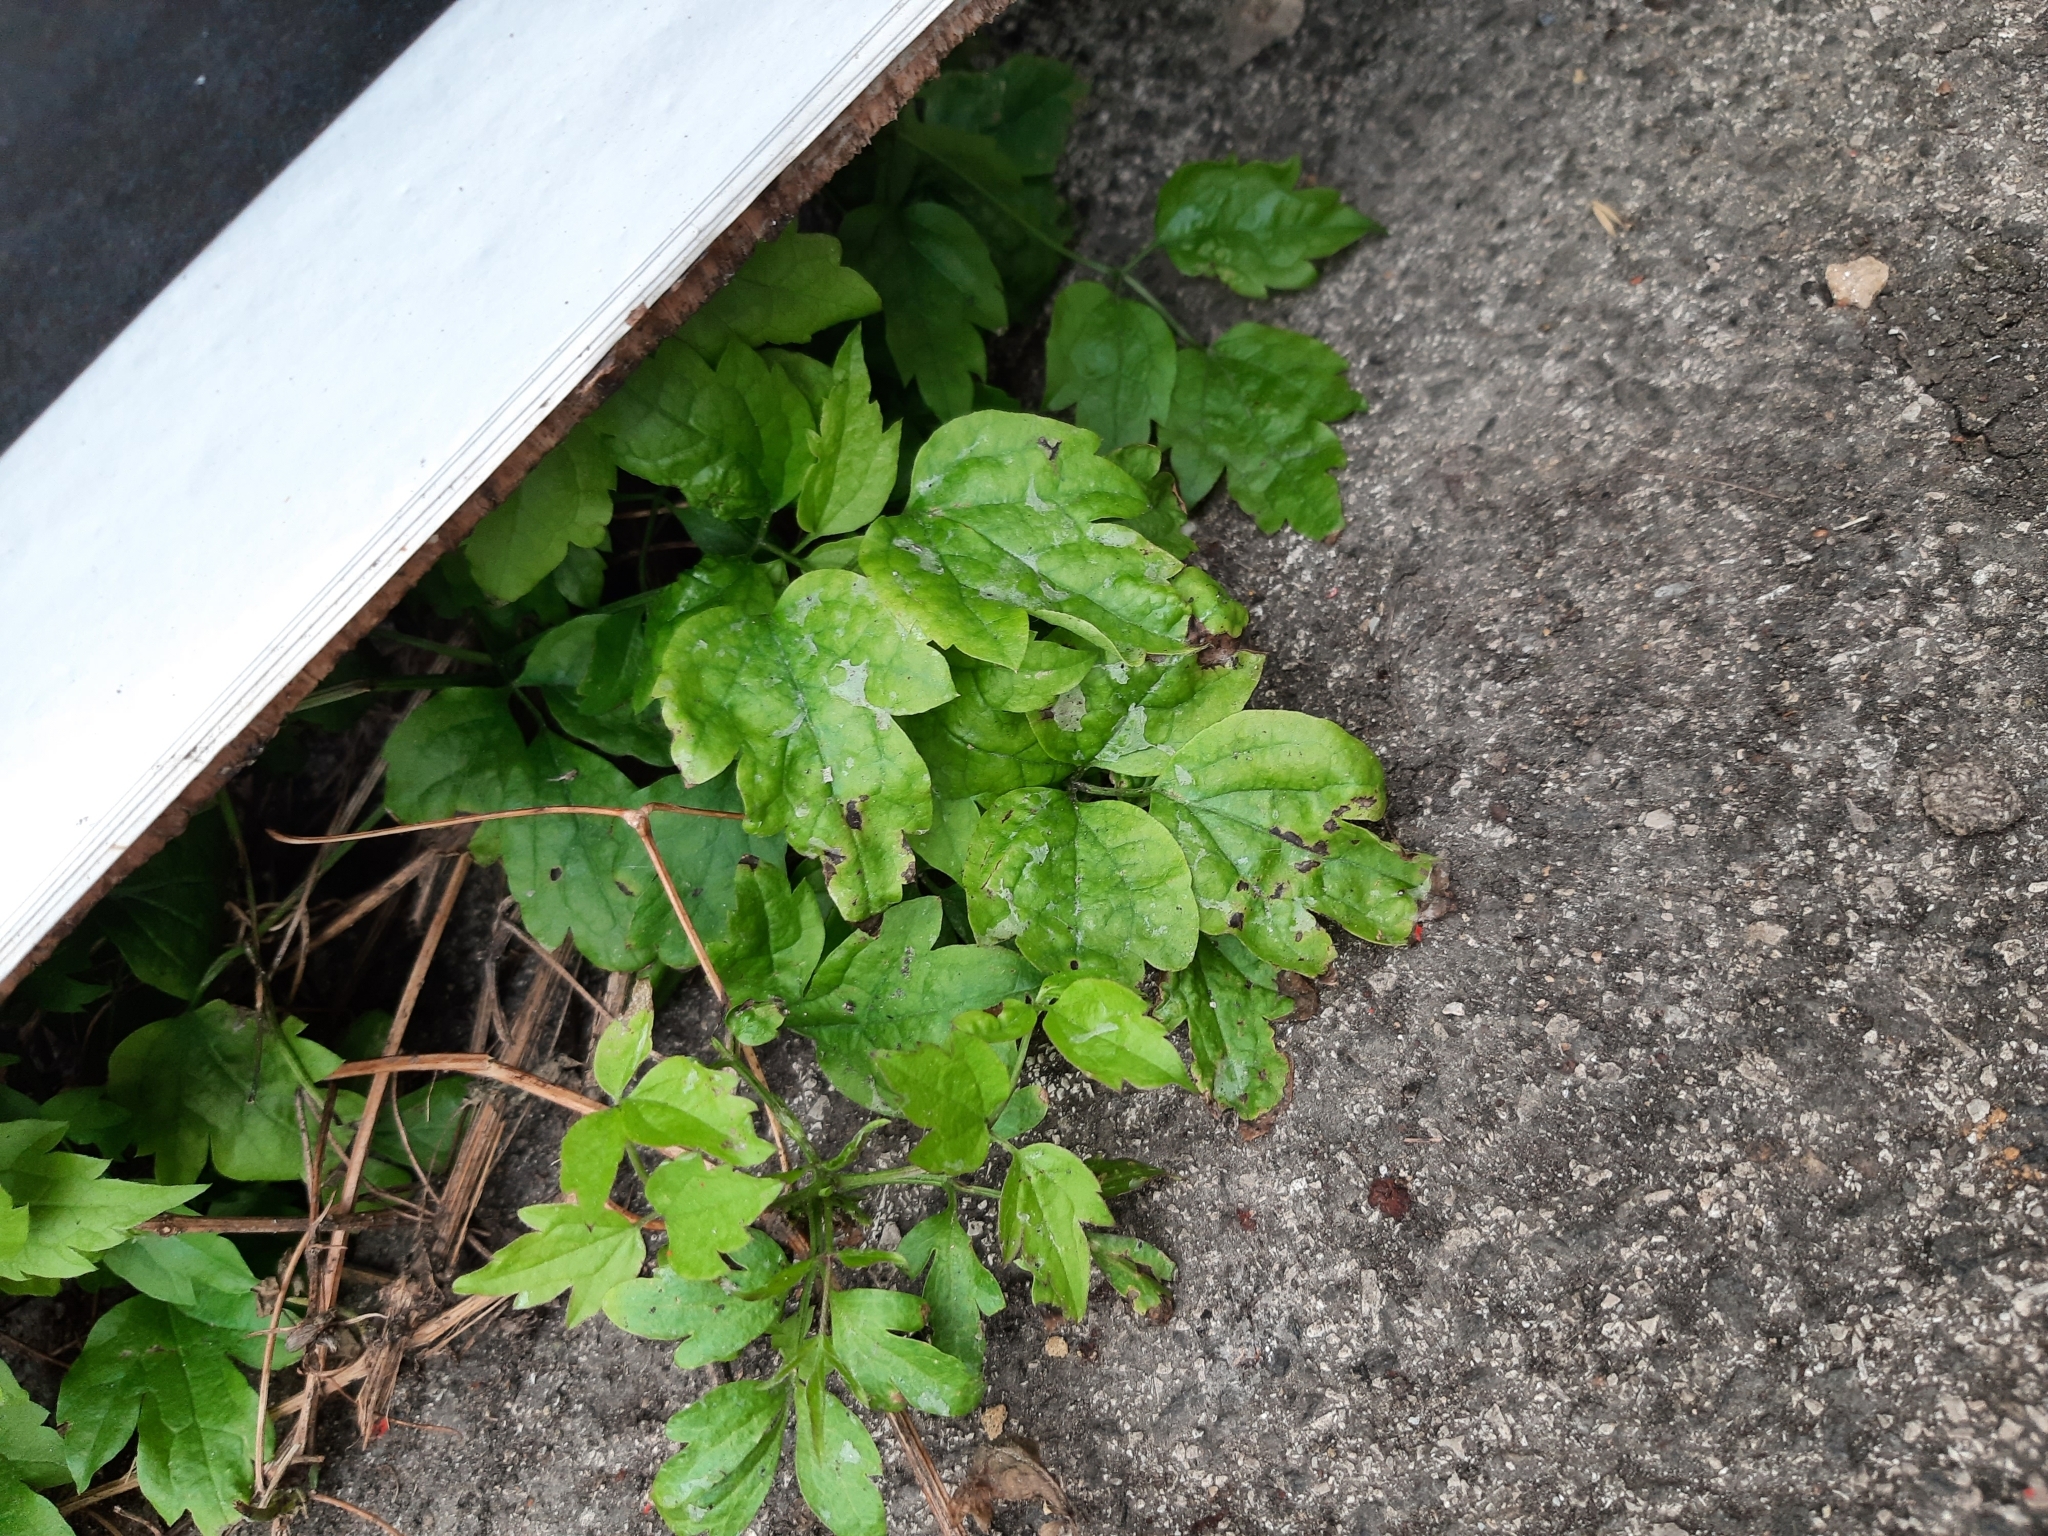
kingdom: Plantae
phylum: Tracheophyta
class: Magnoliopsida
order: Ranunculales
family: Ranunculaceae
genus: Clematis
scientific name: Clematis vitalba
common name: Evergreen clematis
